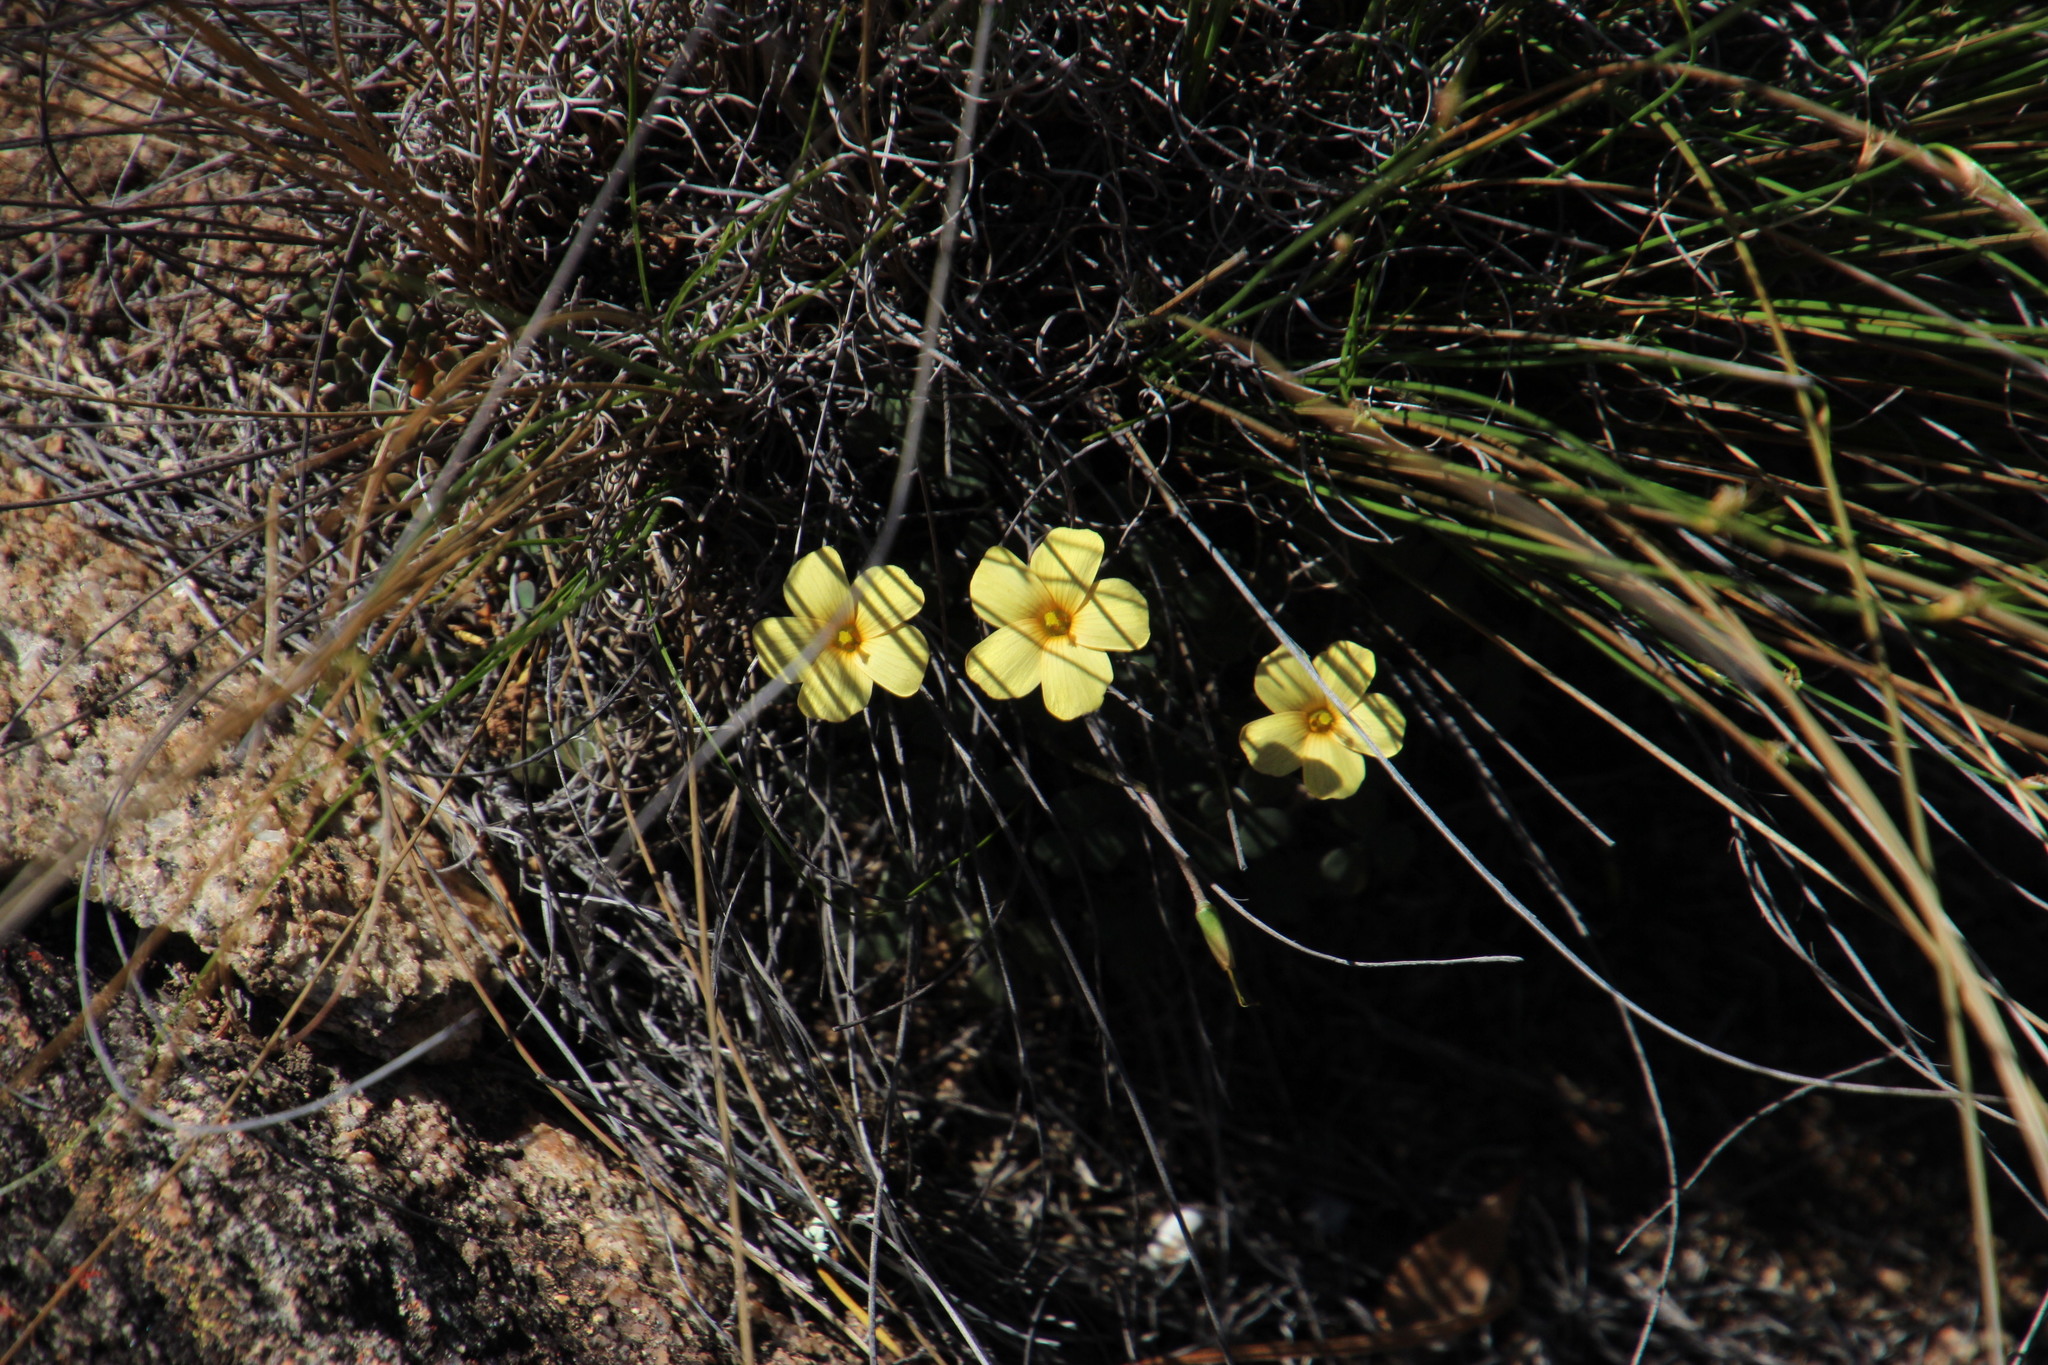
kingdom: Plantae
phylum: Tracheophyta
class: Magnoliopsida
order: Oxalidales
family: Oxalidaceae
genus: Oxalis
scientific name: Oxalis obtusa
